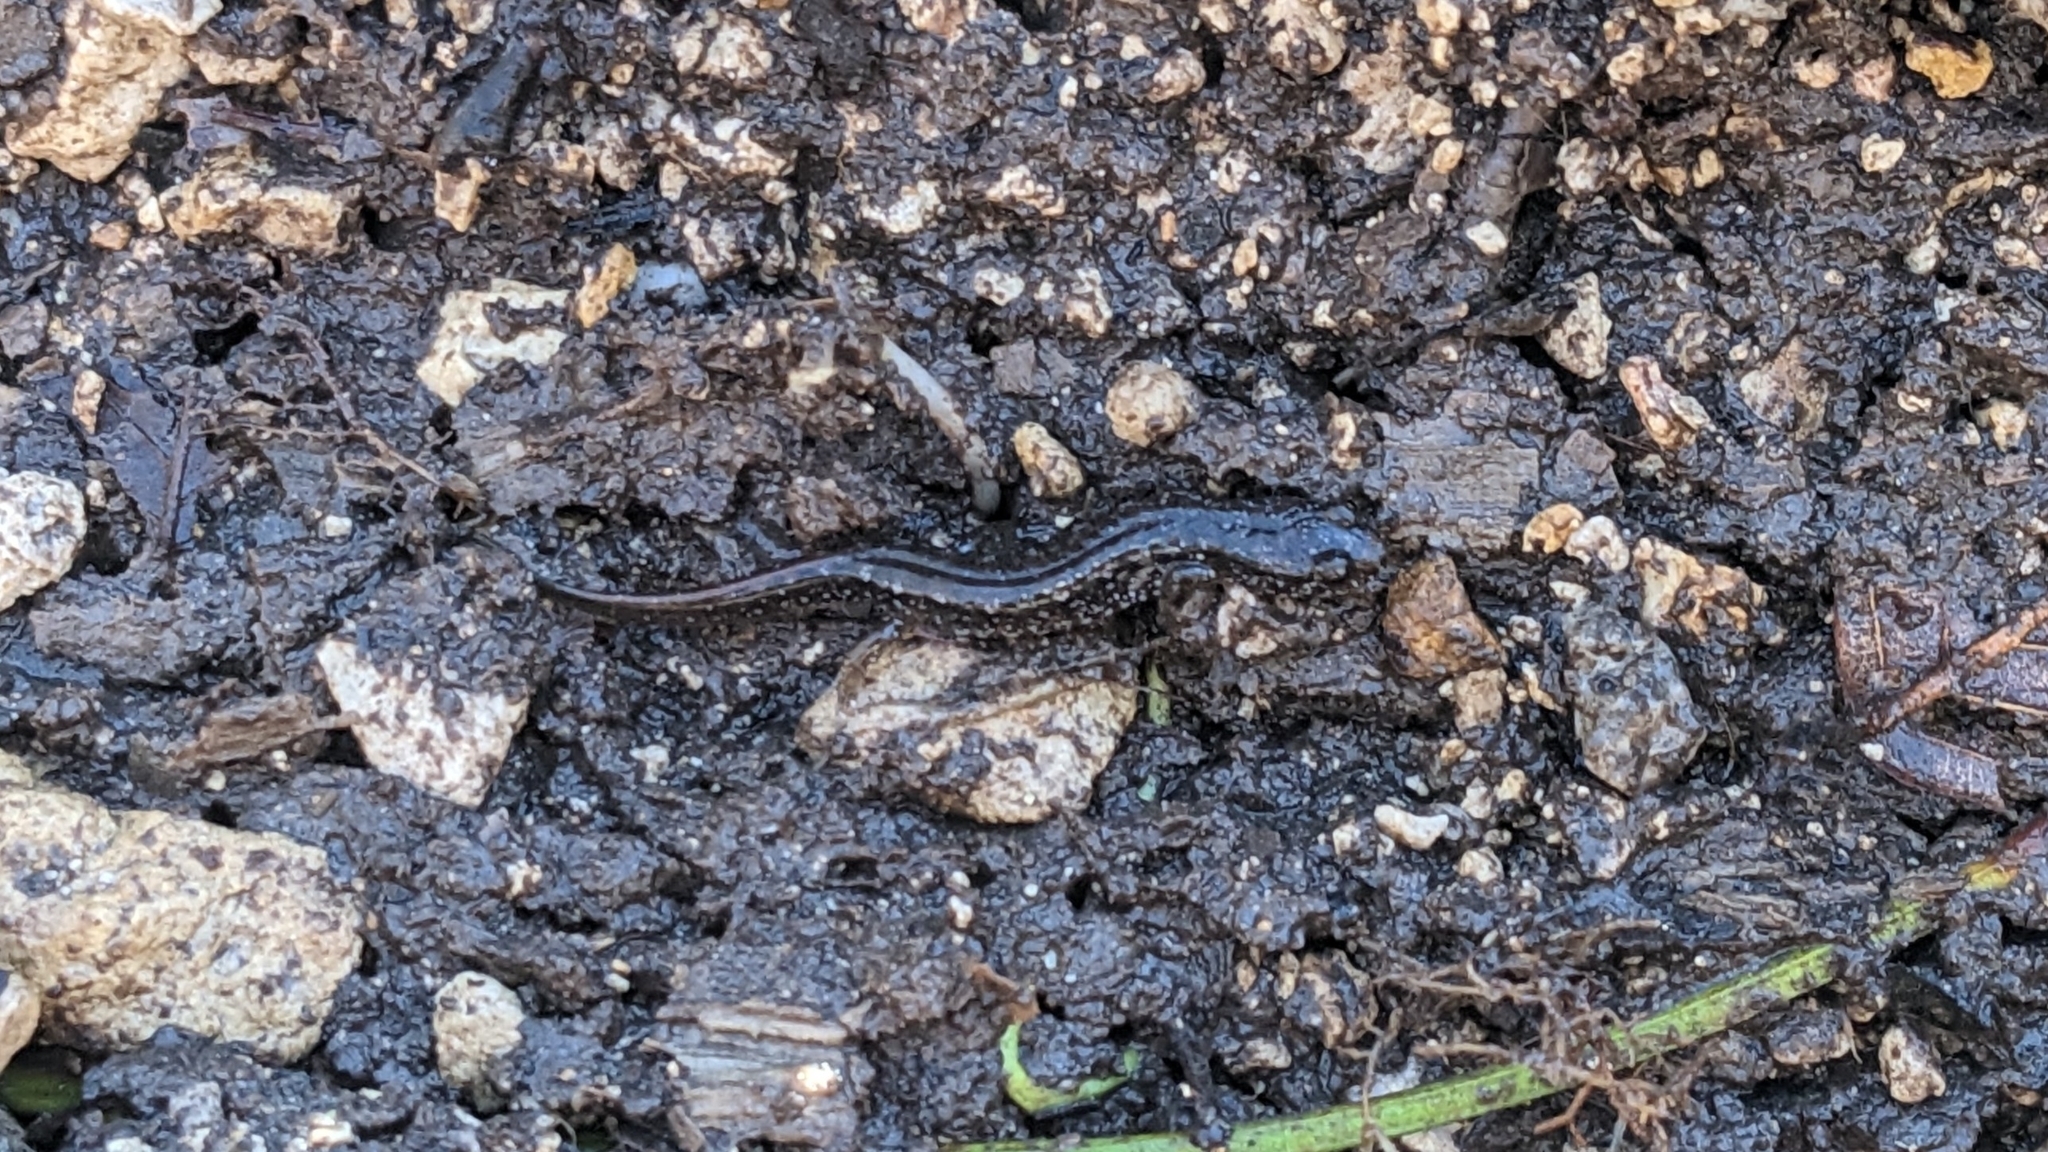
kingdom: Animalia
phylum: Chordata
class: Amphibia
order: Caudata
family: Plethodontidae
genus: Plethodon
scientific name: Plethodon dorsalis
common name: Northern zigzag salamander
